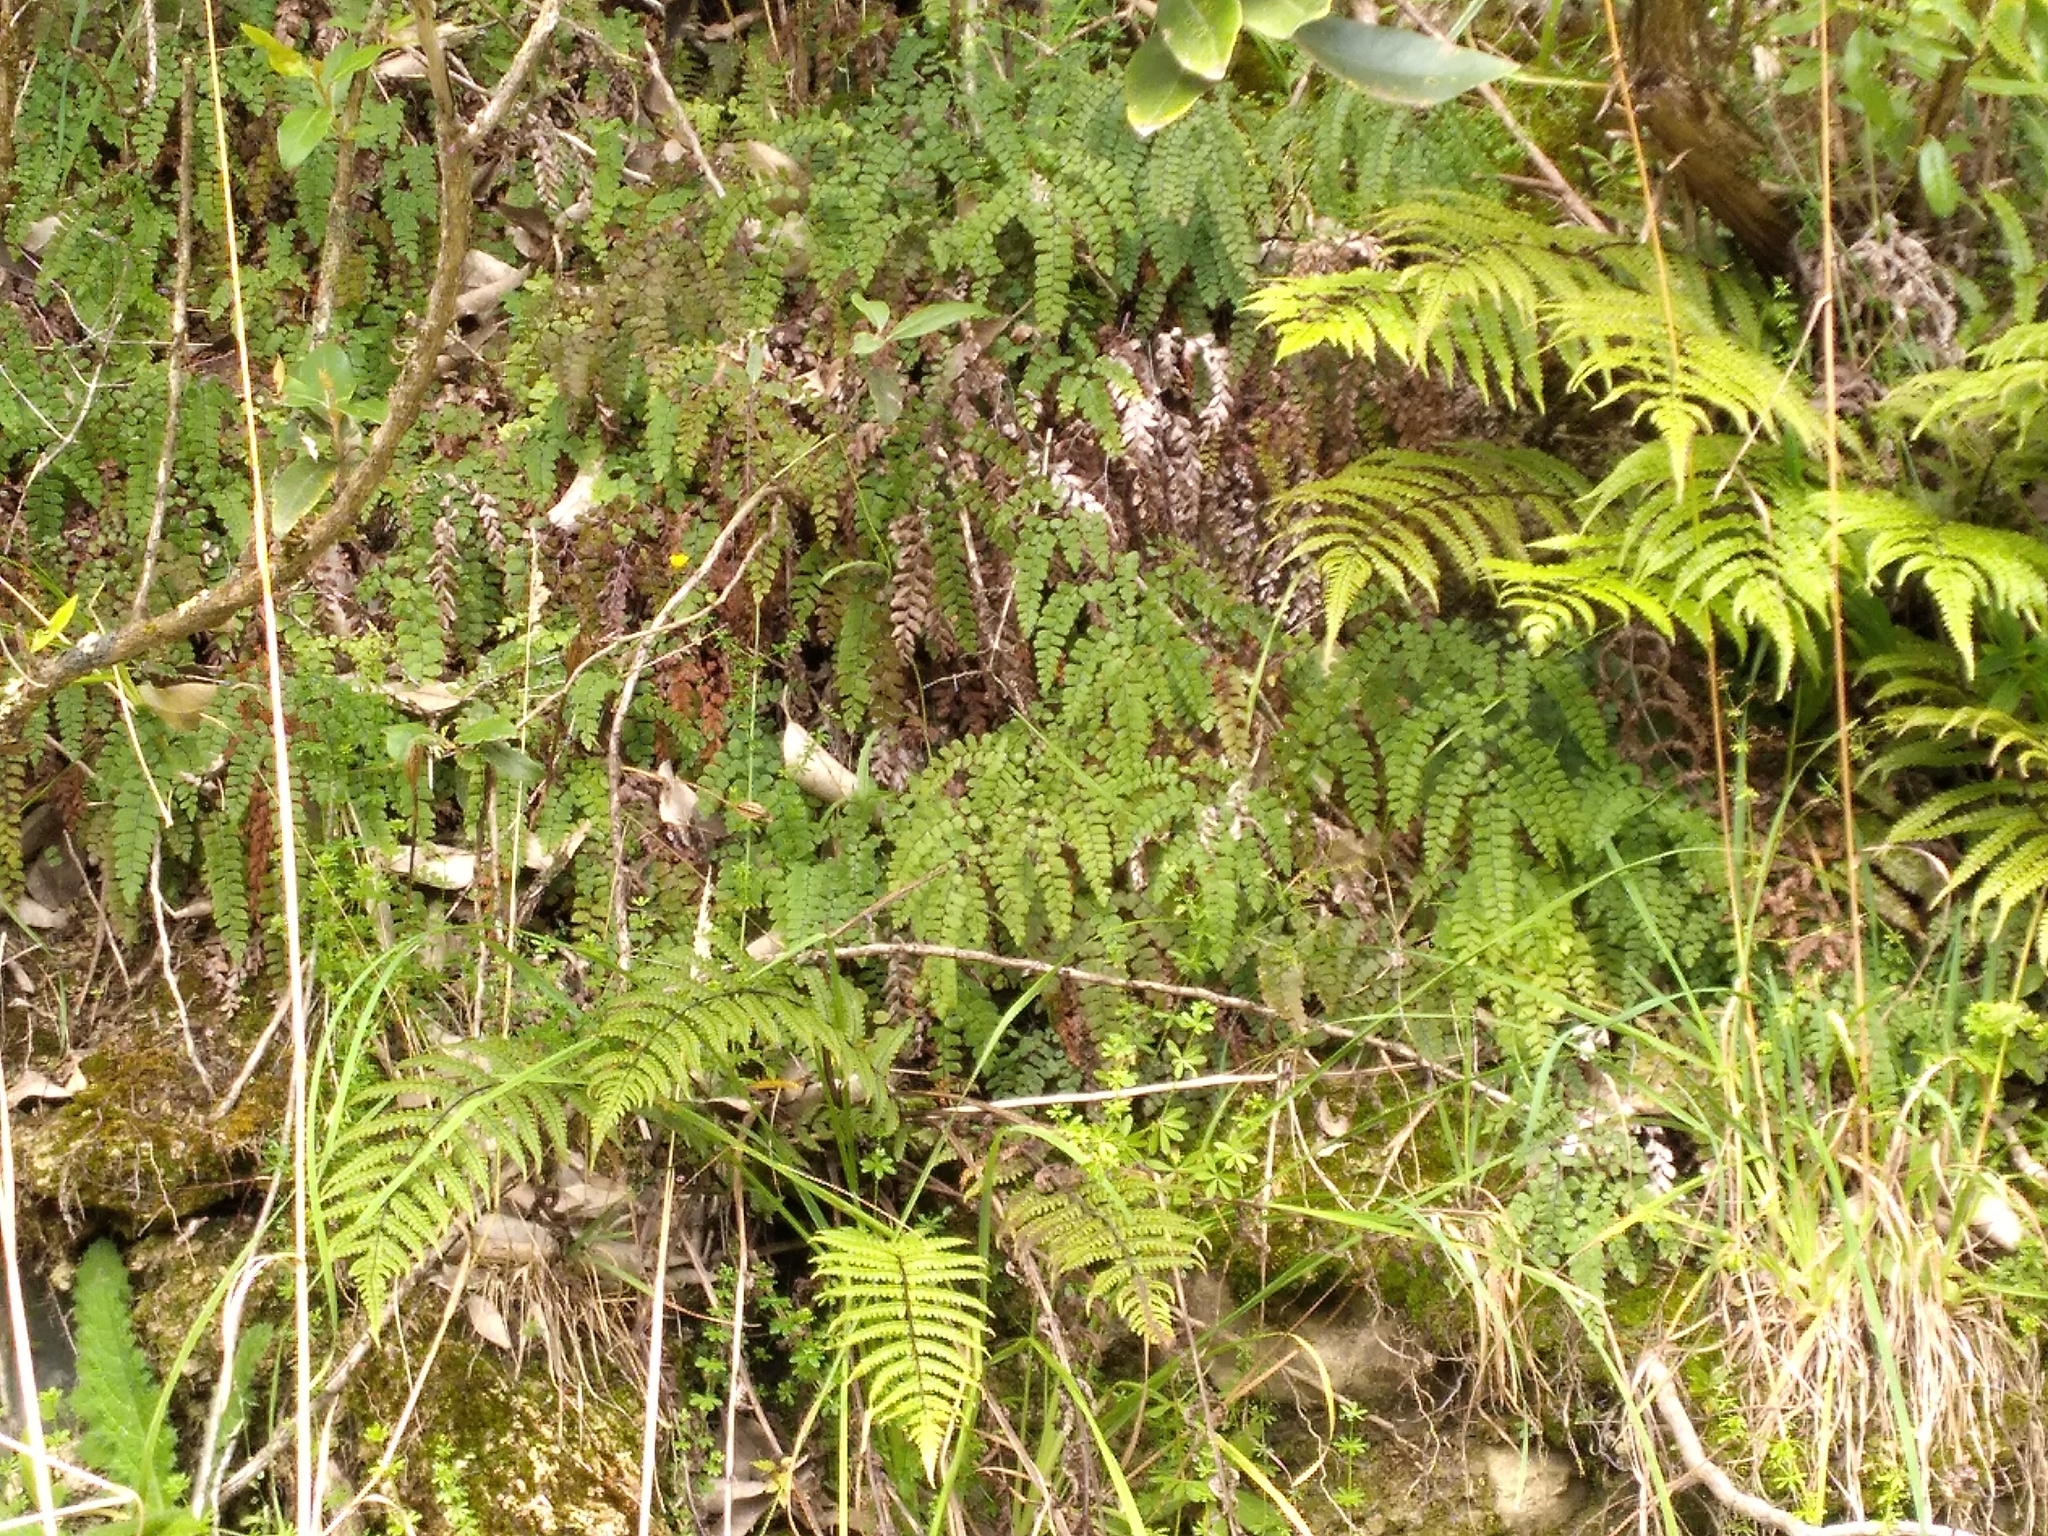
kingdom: Plantae
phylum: Tracheophyta
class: Polypodiopsida
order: Polypodiales
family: Pteridaceae
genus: Adiantum
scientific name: Adiantum cunninghamii
